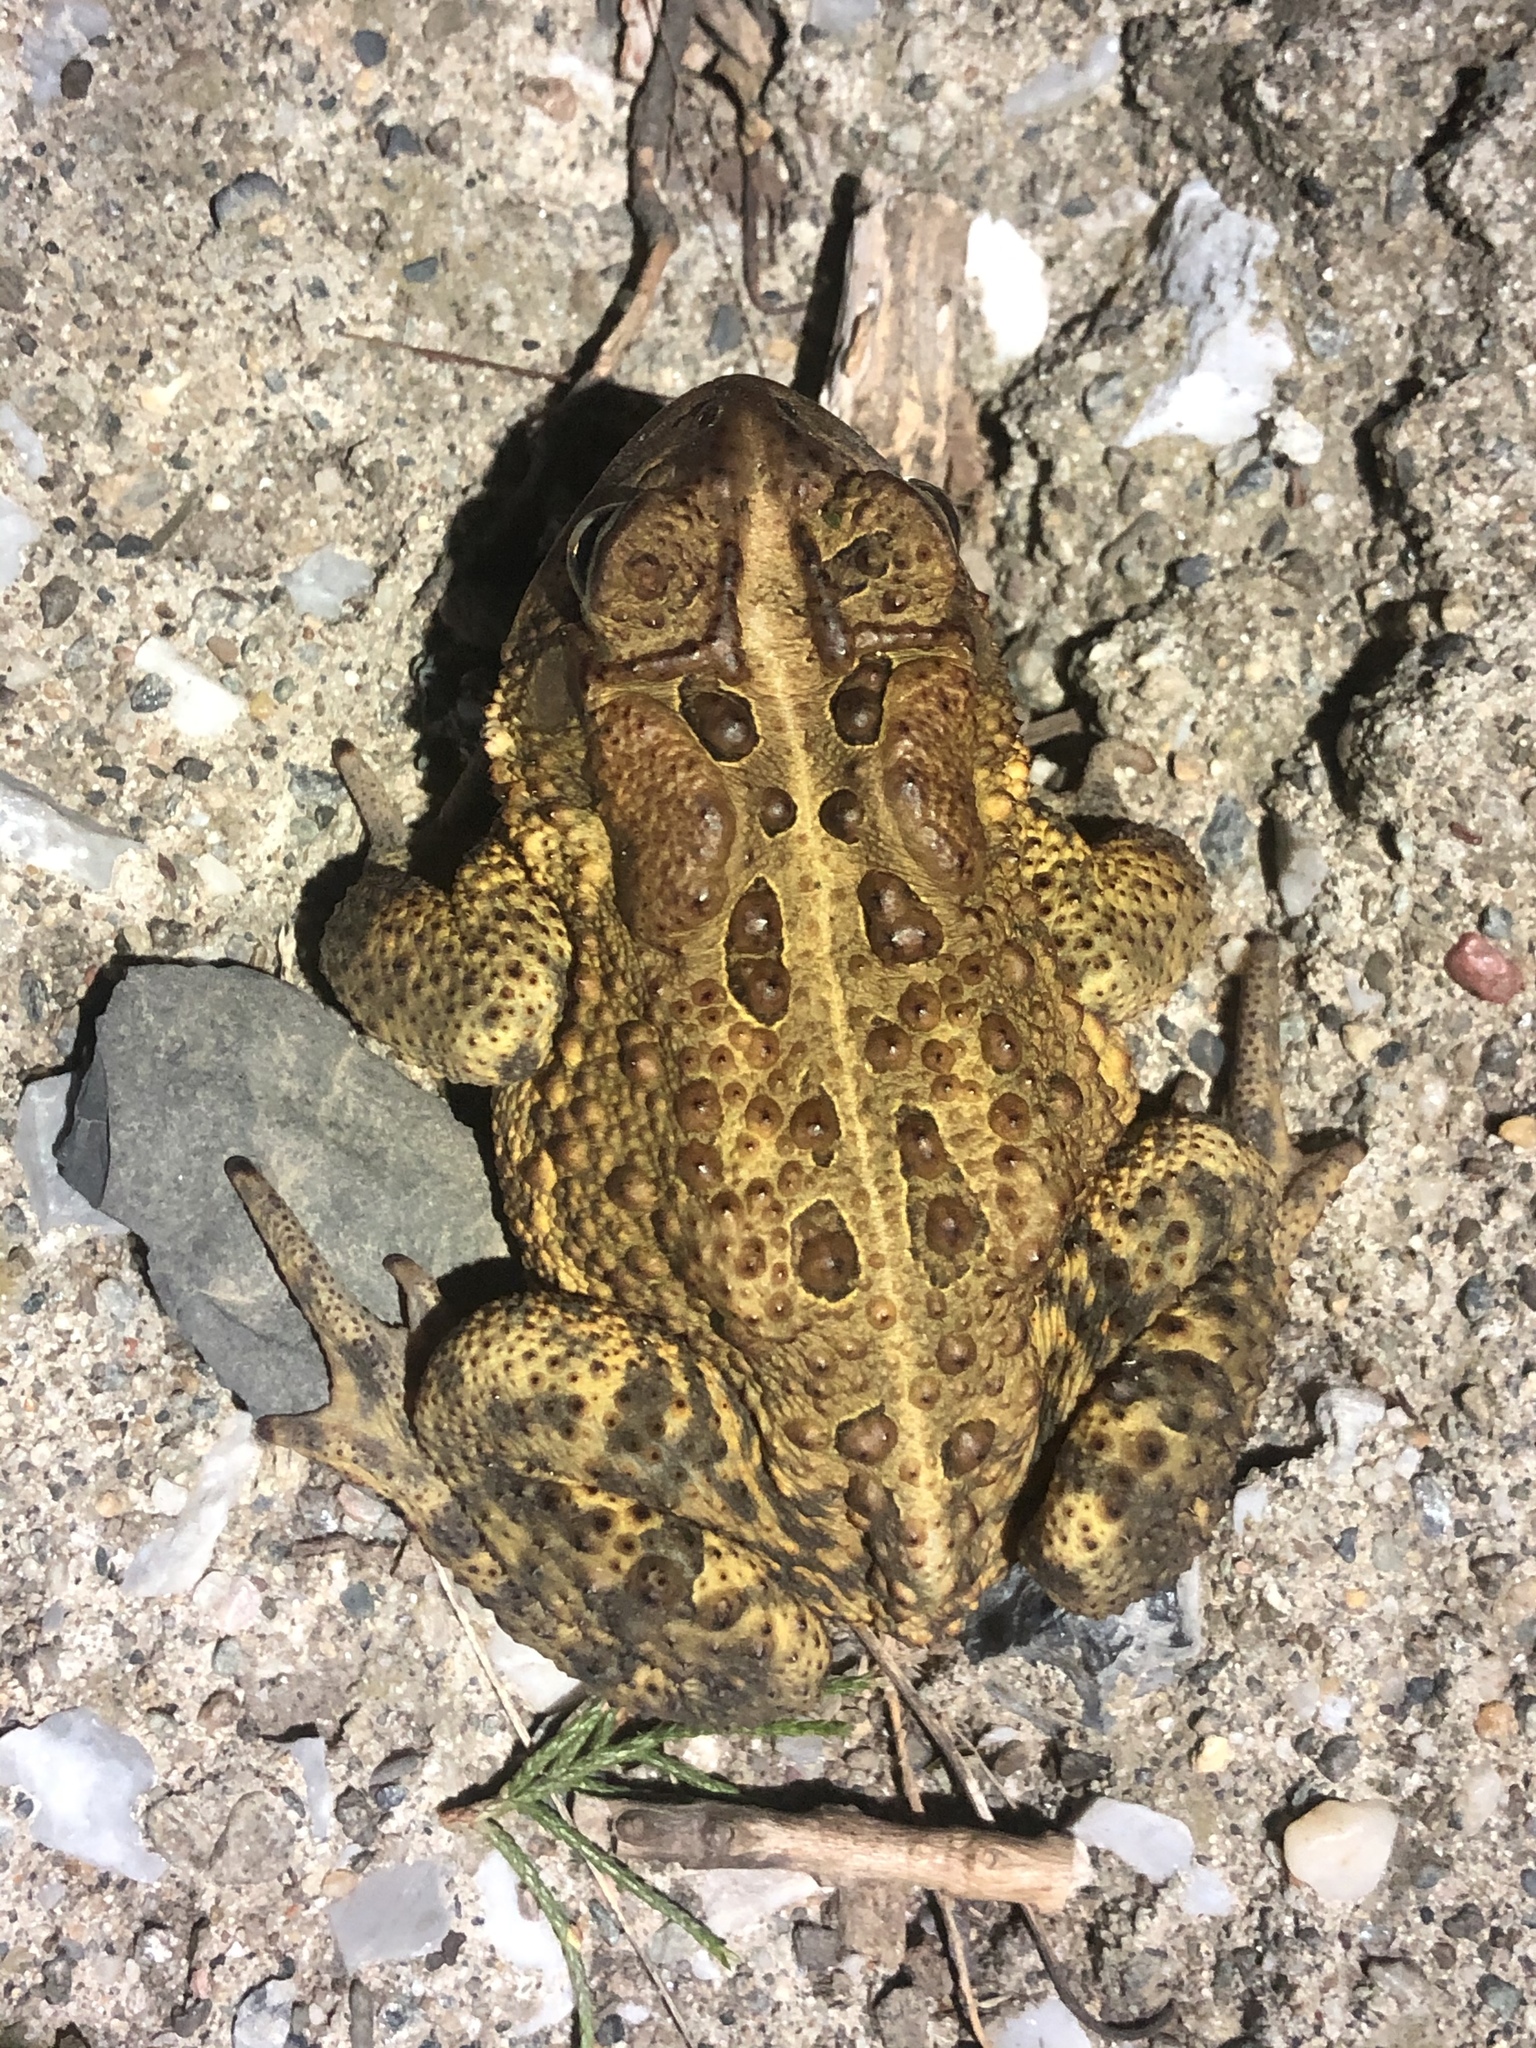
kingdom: Animalia
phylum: Chordata
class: Amphibia
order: Anura
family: Bufonidae
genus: Anaxyrus
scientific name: Anaxyrus americanus
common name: American toad
